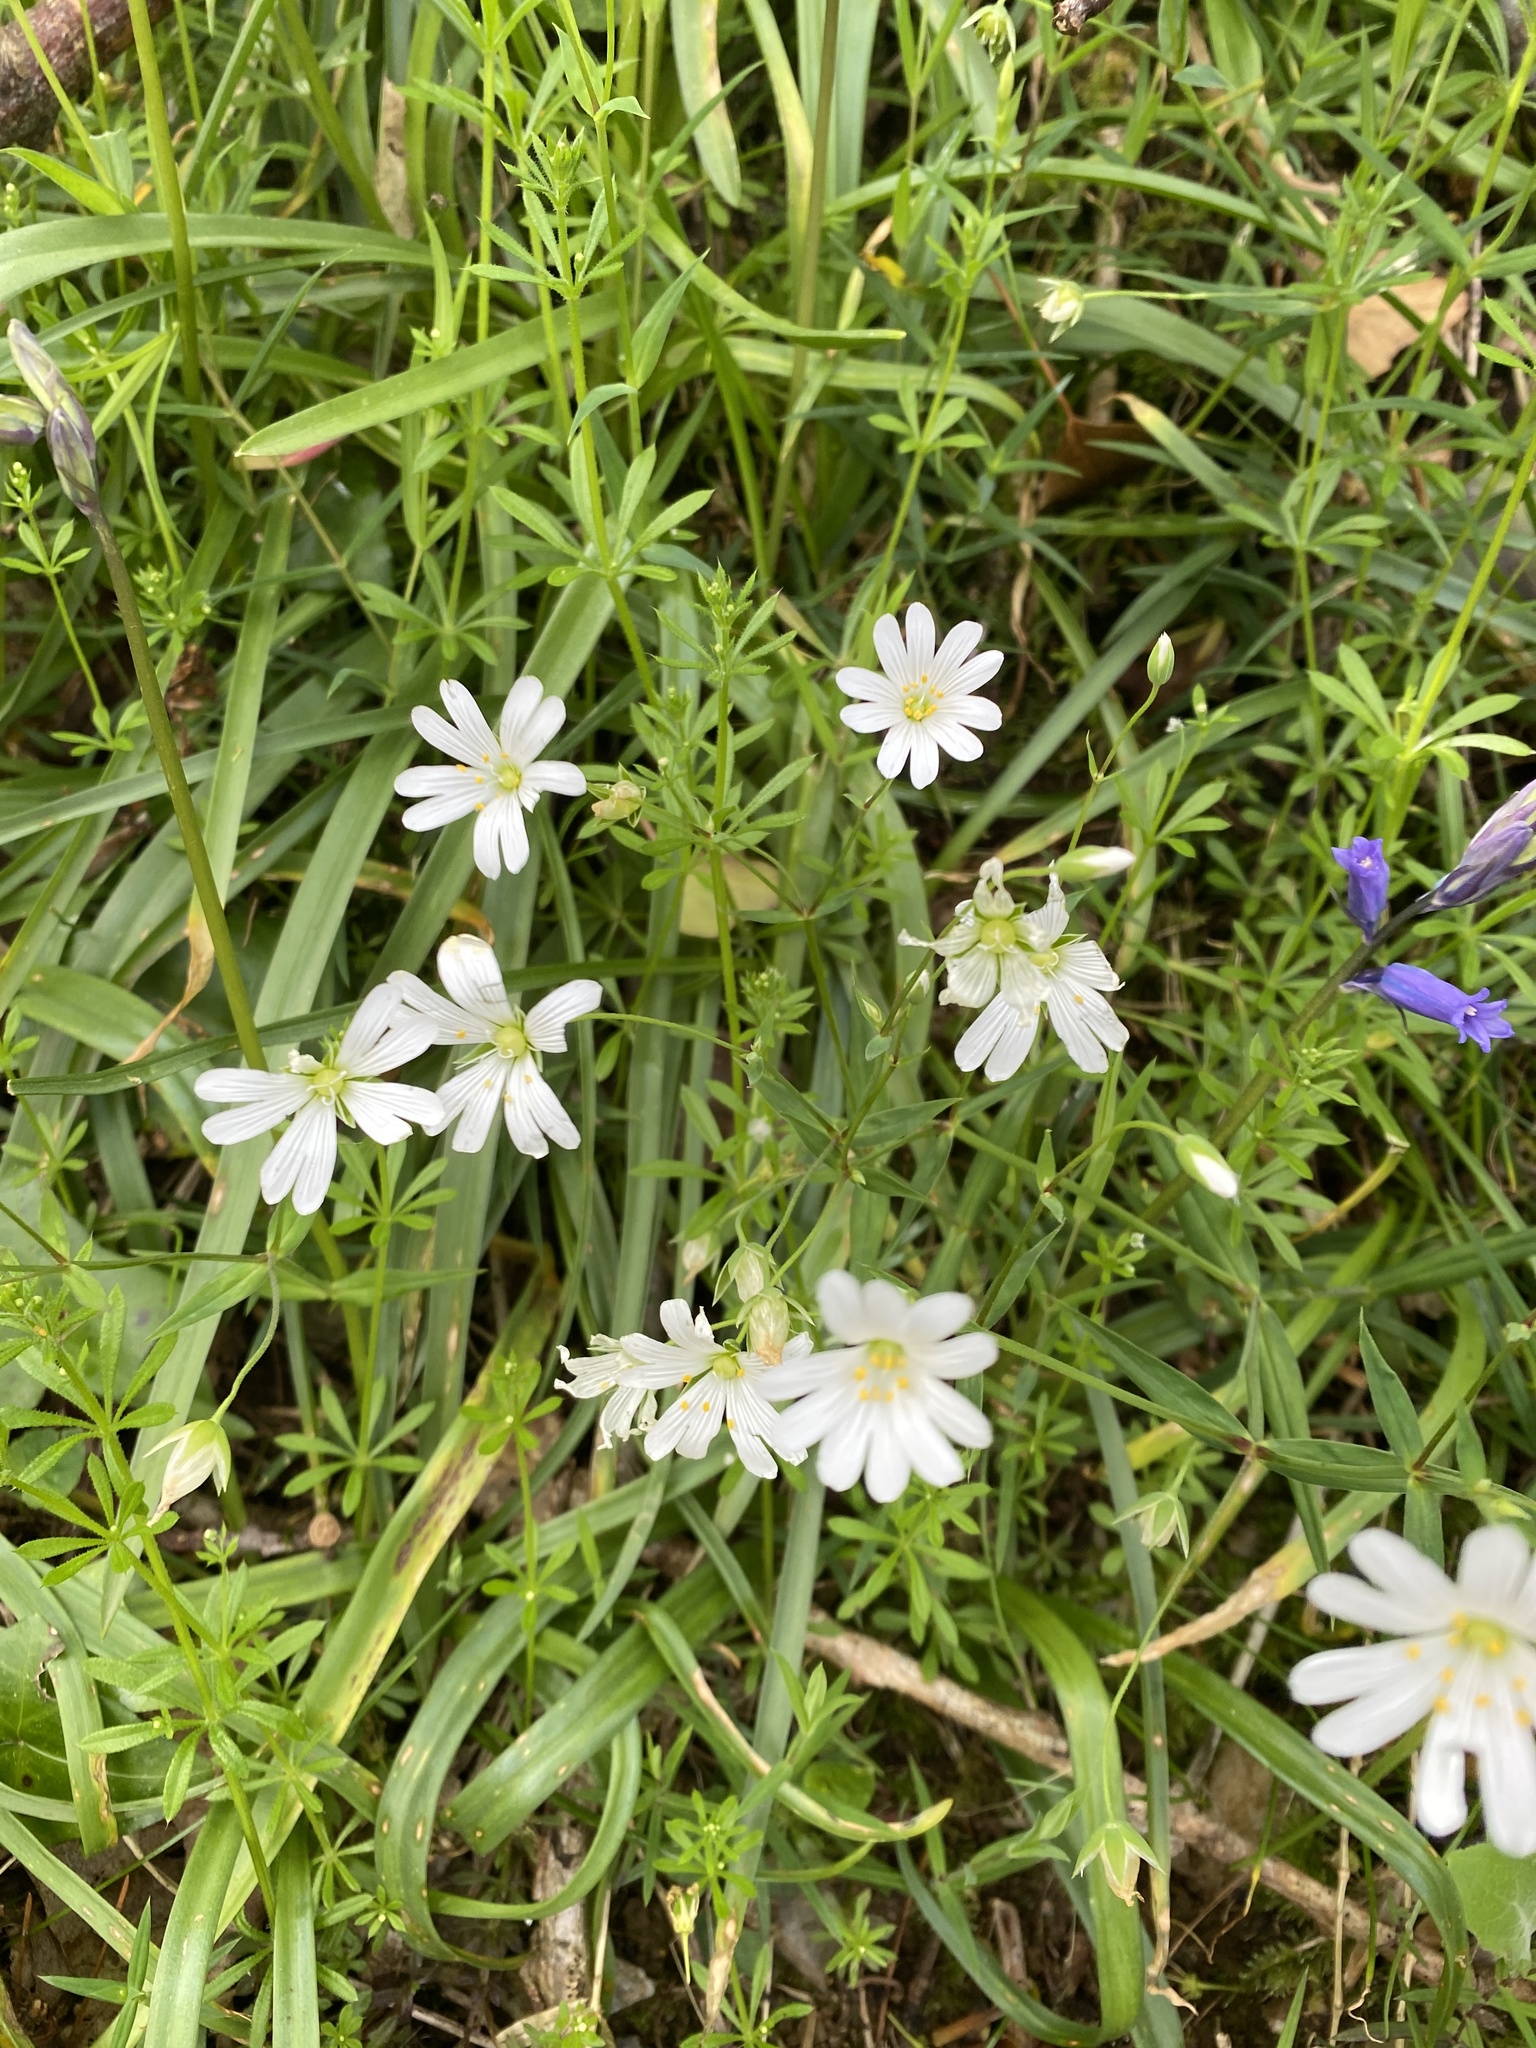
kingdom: Plantae
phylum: Tracheophyta
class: Magnoliopsida
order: Caryophyllales
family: Caryophyllaceae
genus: Rabelera
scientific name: Rabelera holostea
